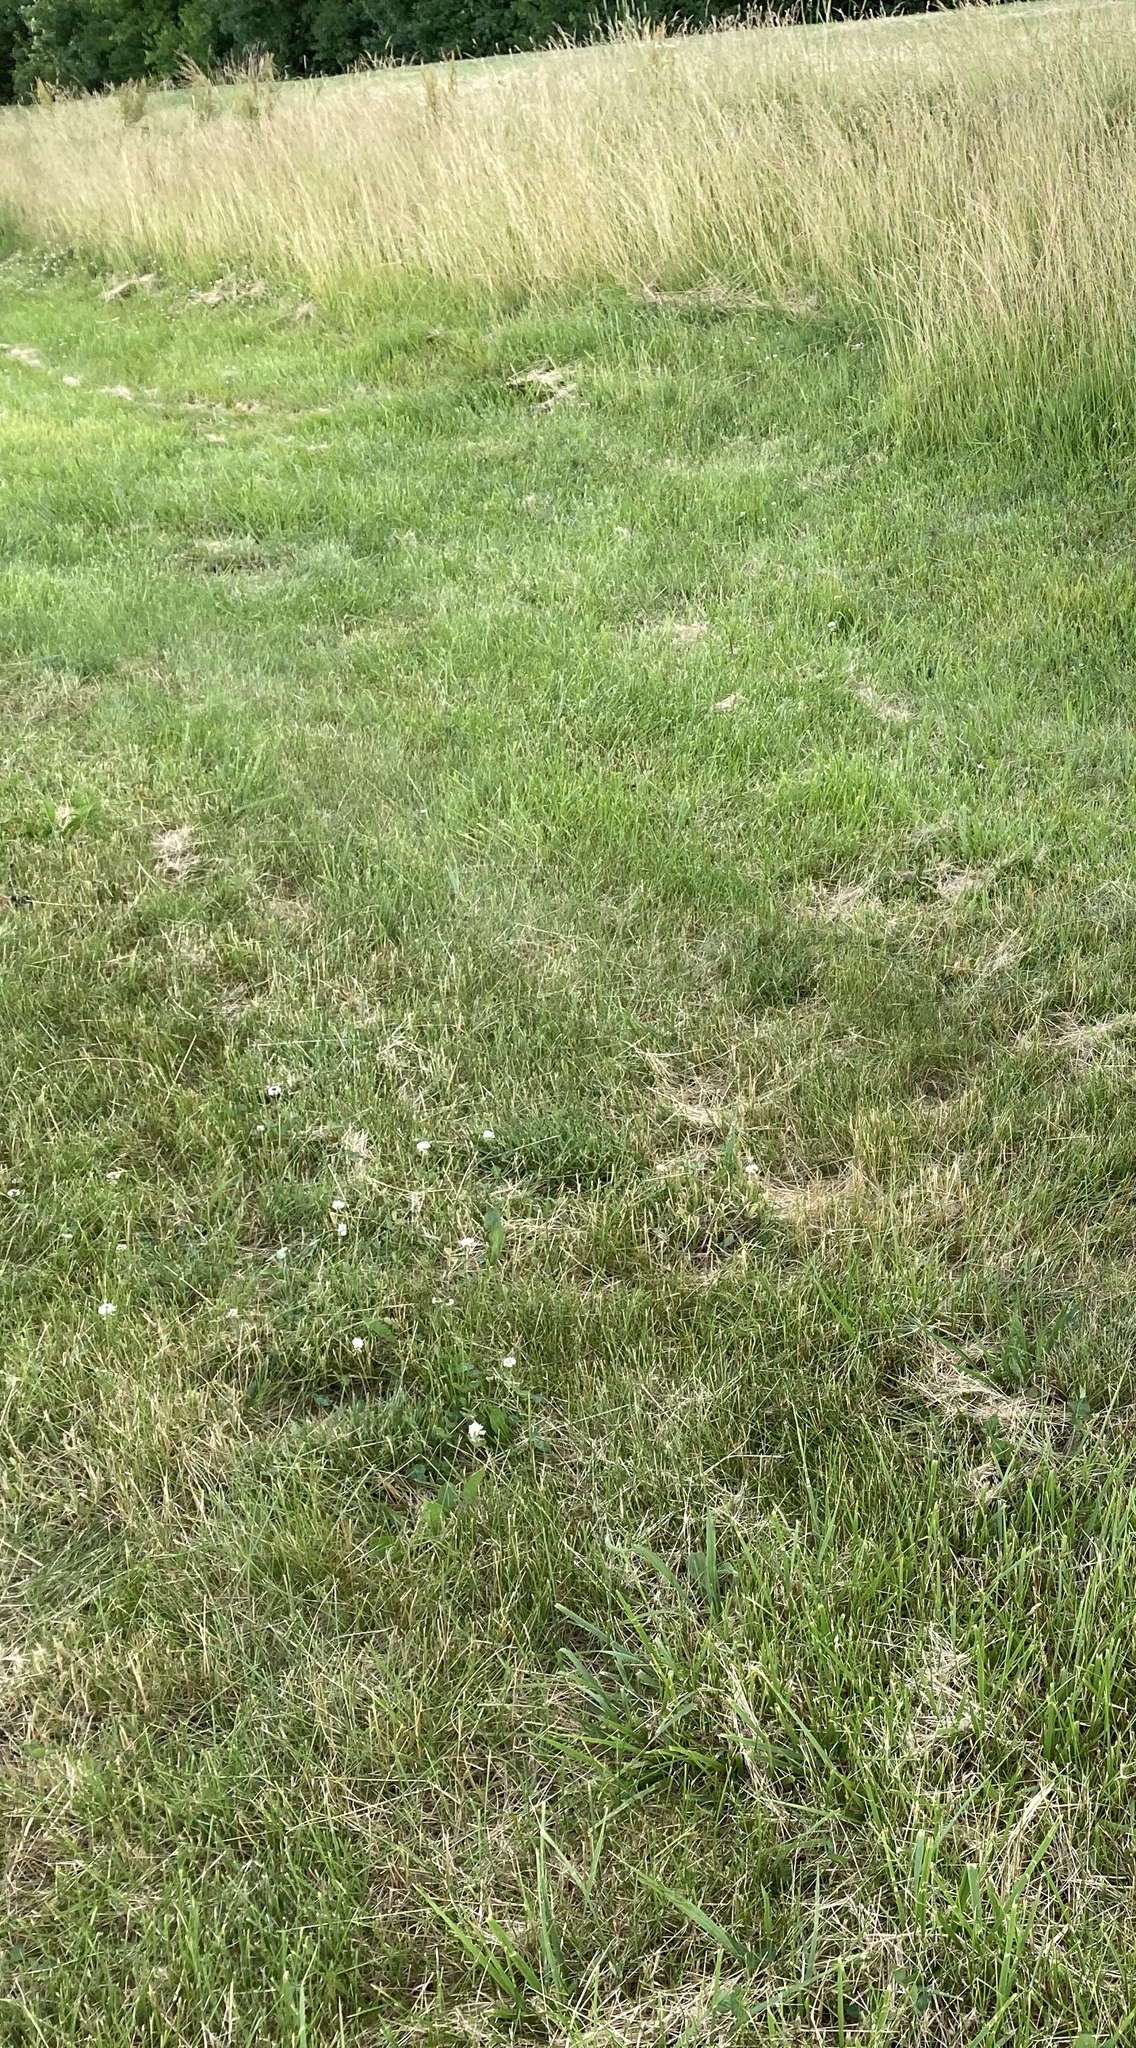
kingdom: Plantae
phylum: Tracheophyta
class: Magnoliopsida
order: Fabales
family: Fabaceae
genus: Trifolium
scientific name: Trifolium repens
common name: White clover
